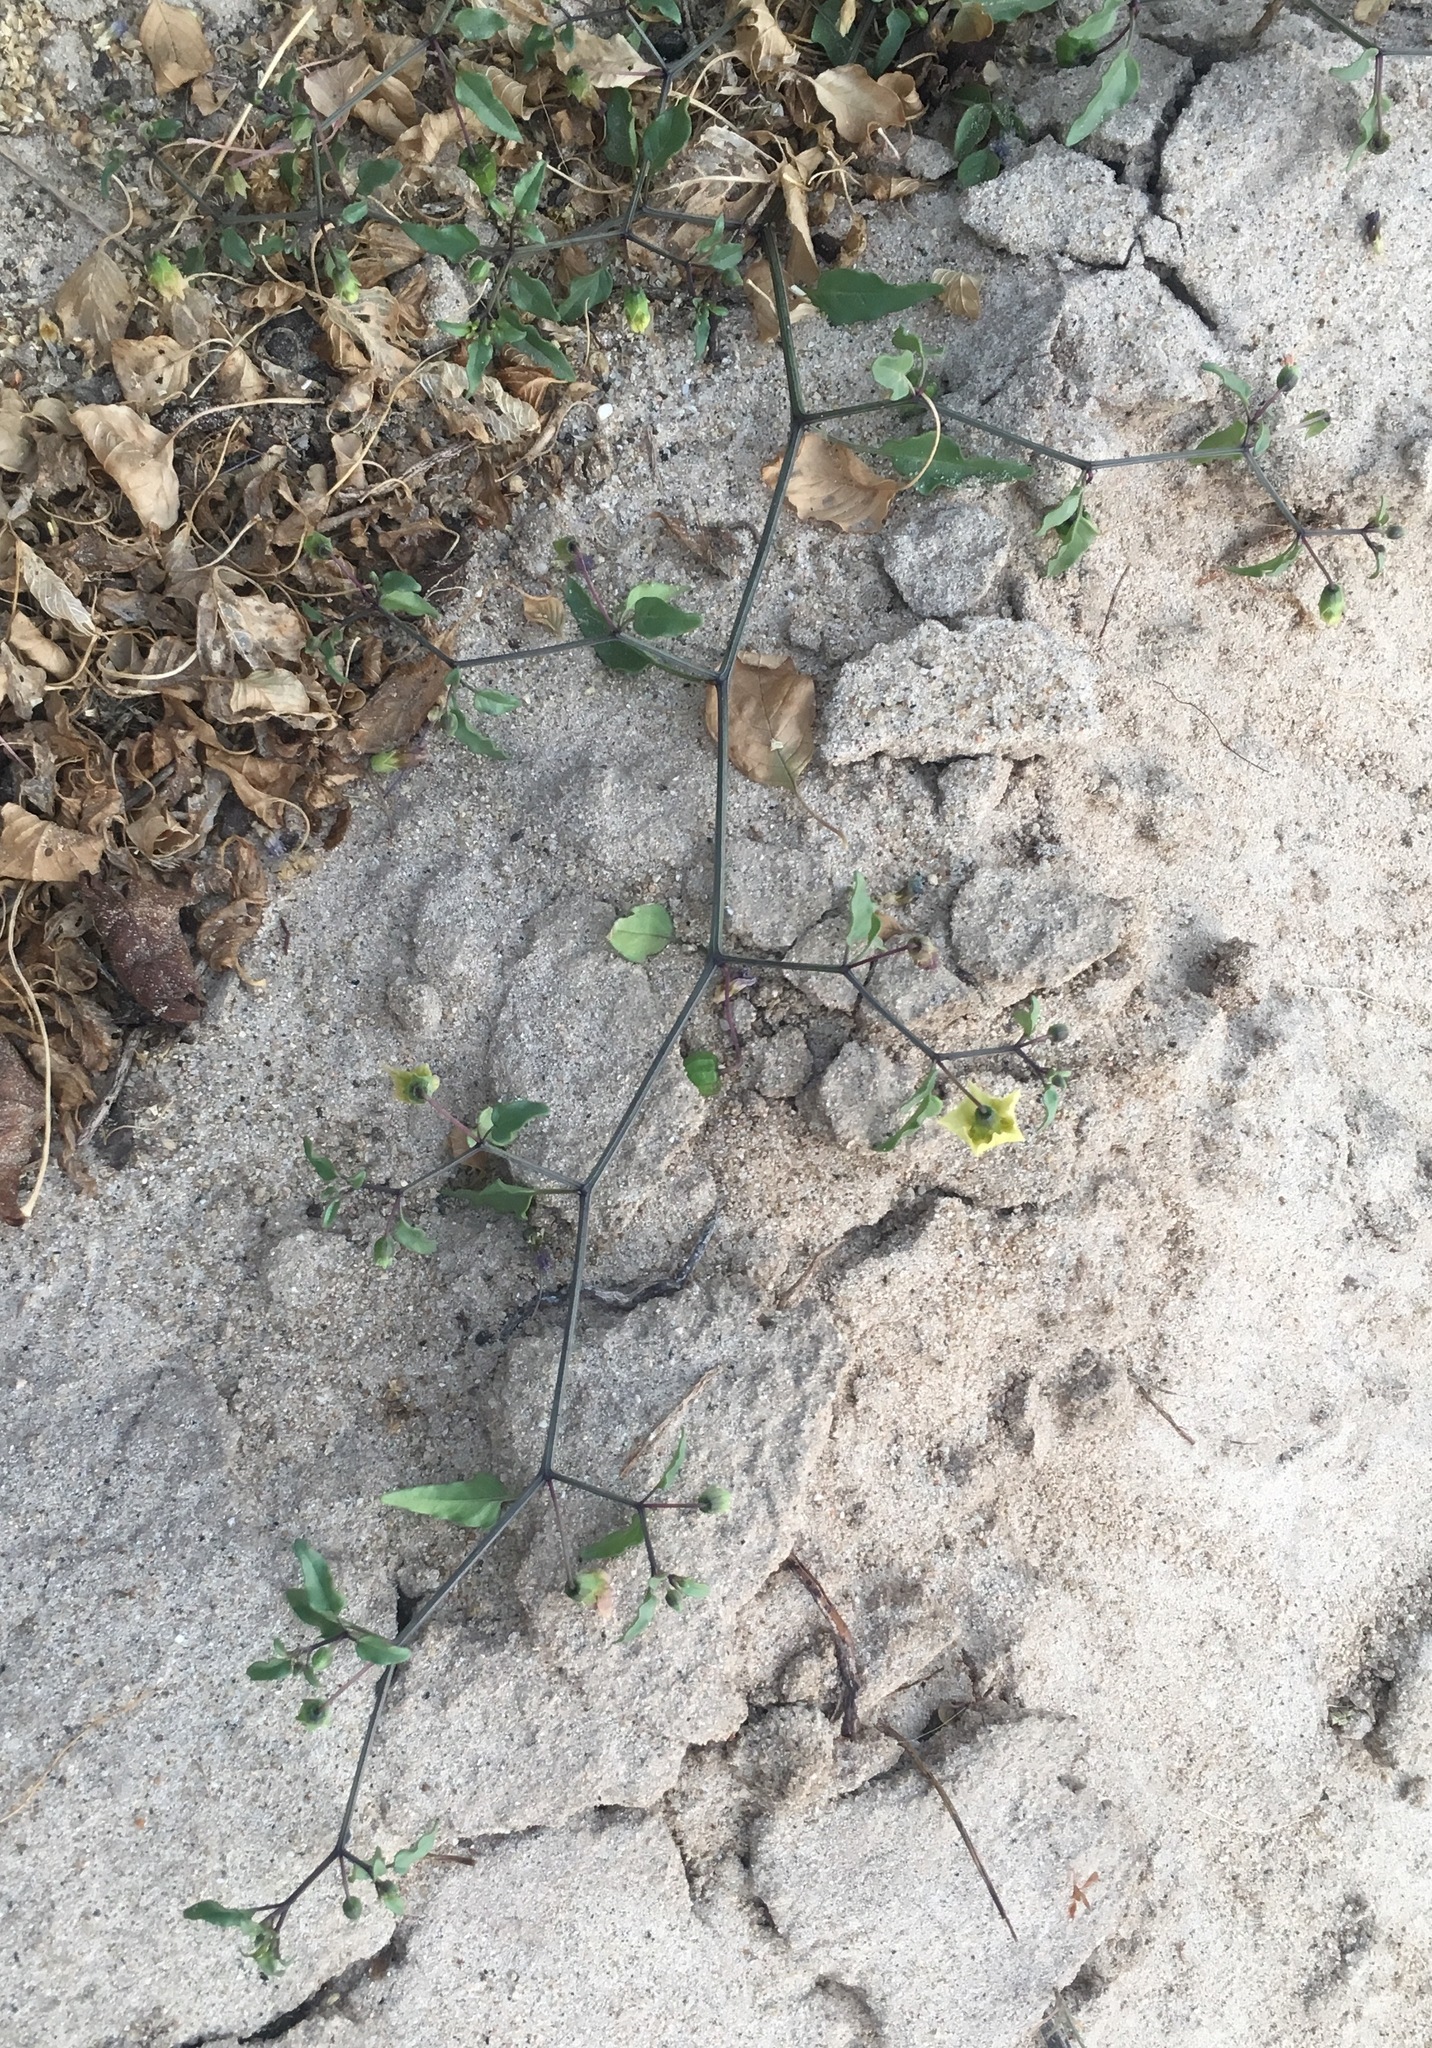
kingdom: Plantae
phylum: Tracheophyta
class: Magnoliopsida
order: Solanales
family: Solanaceae
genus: Physalis
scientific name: Physalis glabra
